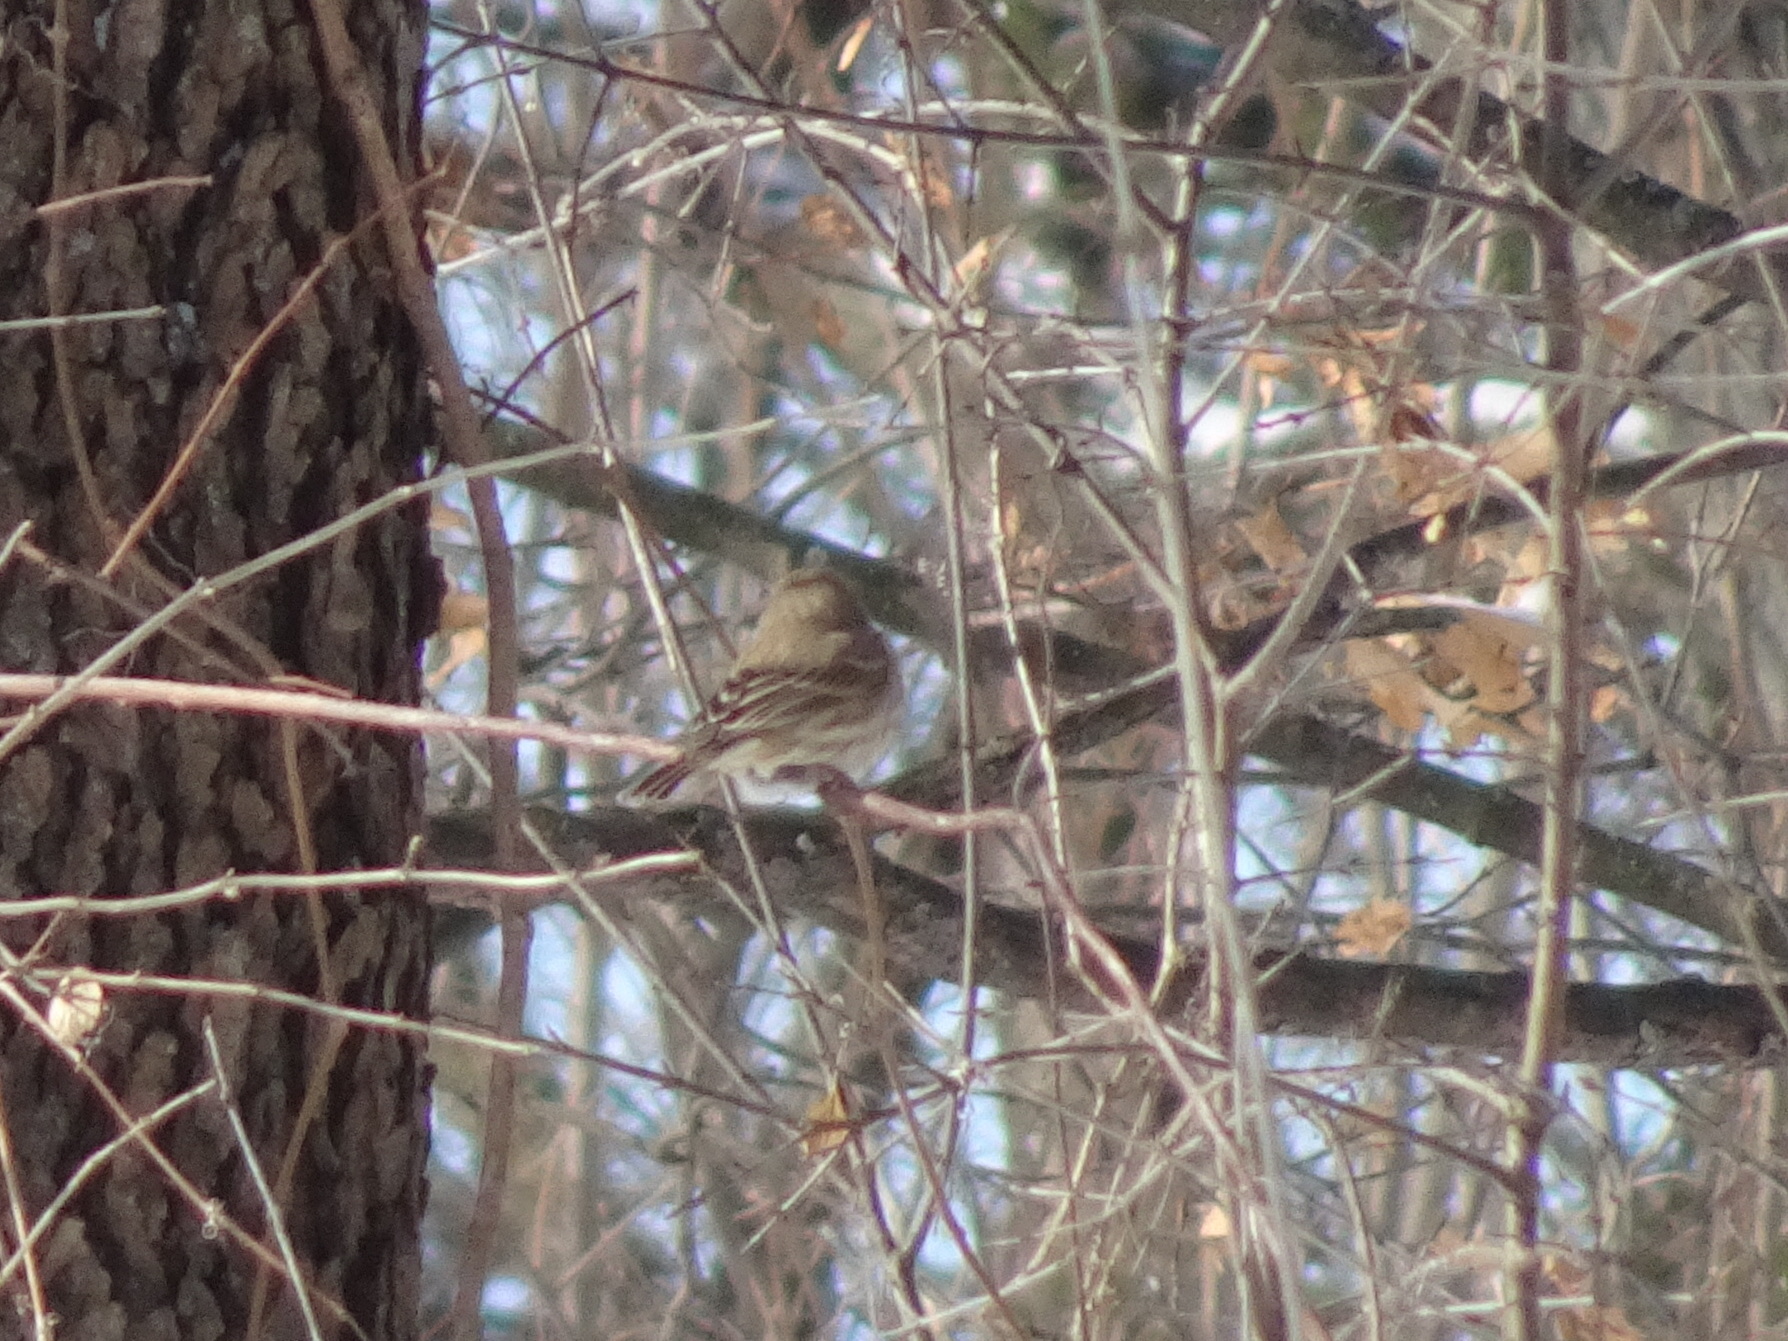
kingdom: Animalia
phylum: Chordata
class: Aves
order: Passeriformes
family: Fringillidae
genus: Haemorhous
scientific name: Haemorhous mexicanus
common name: House finch
